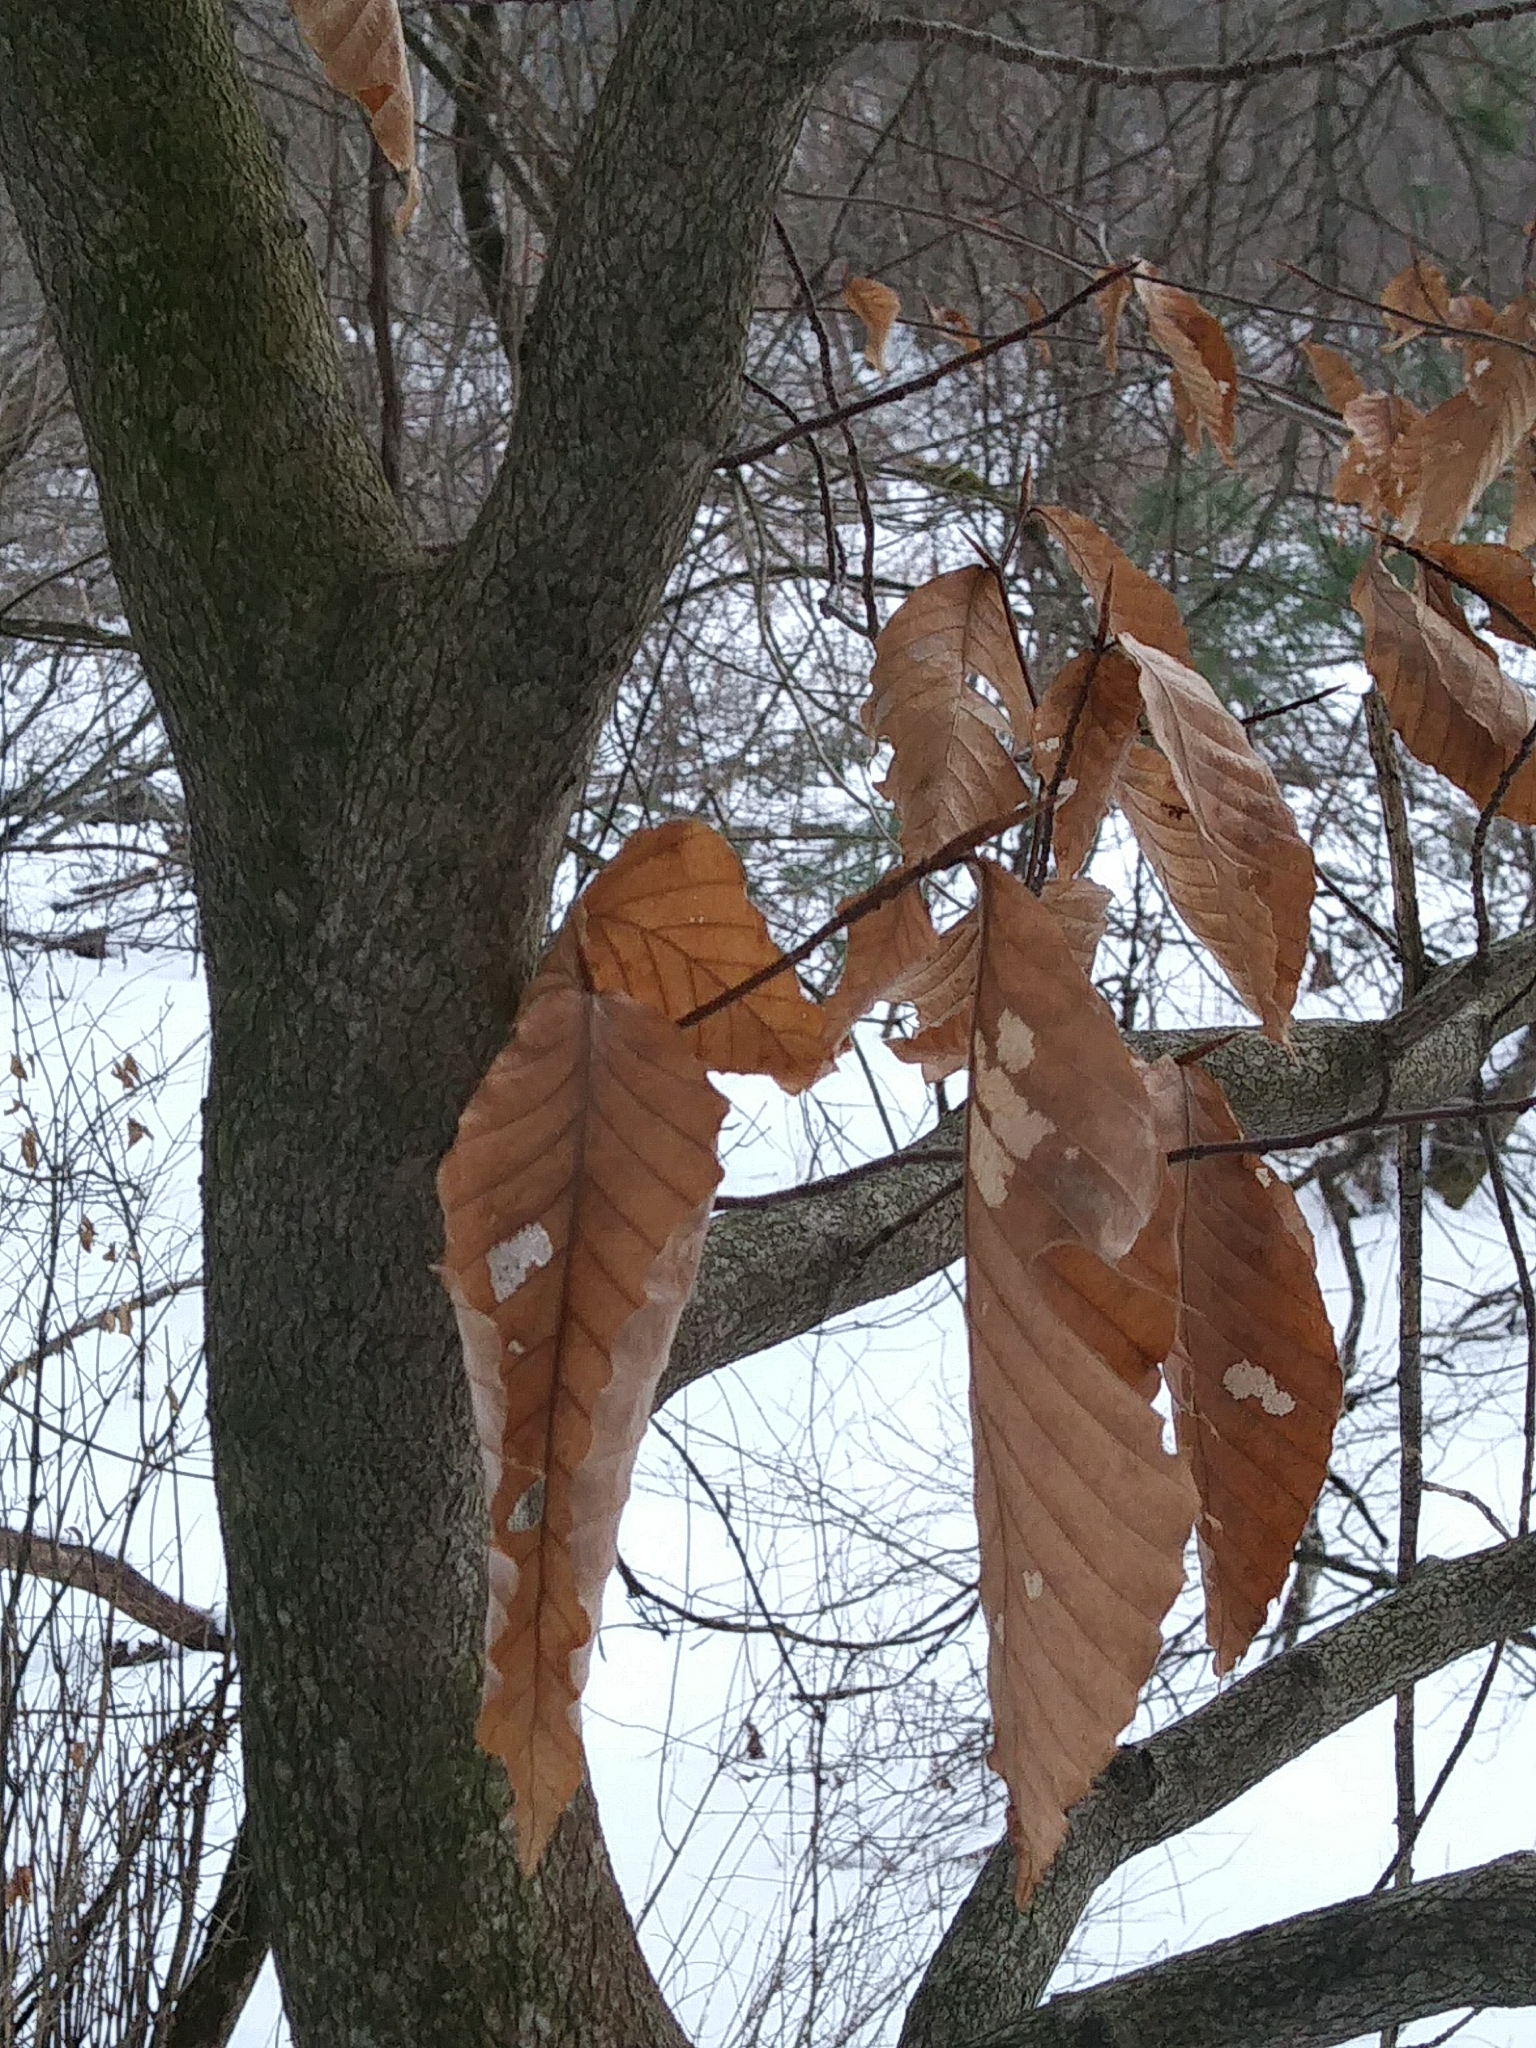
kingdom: Plantae
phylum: Tracheophyta
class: Magnoliopsida
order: Fagales
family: Fagaceae
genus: Fagus
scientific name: Fagus grandifolia
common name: American beech
